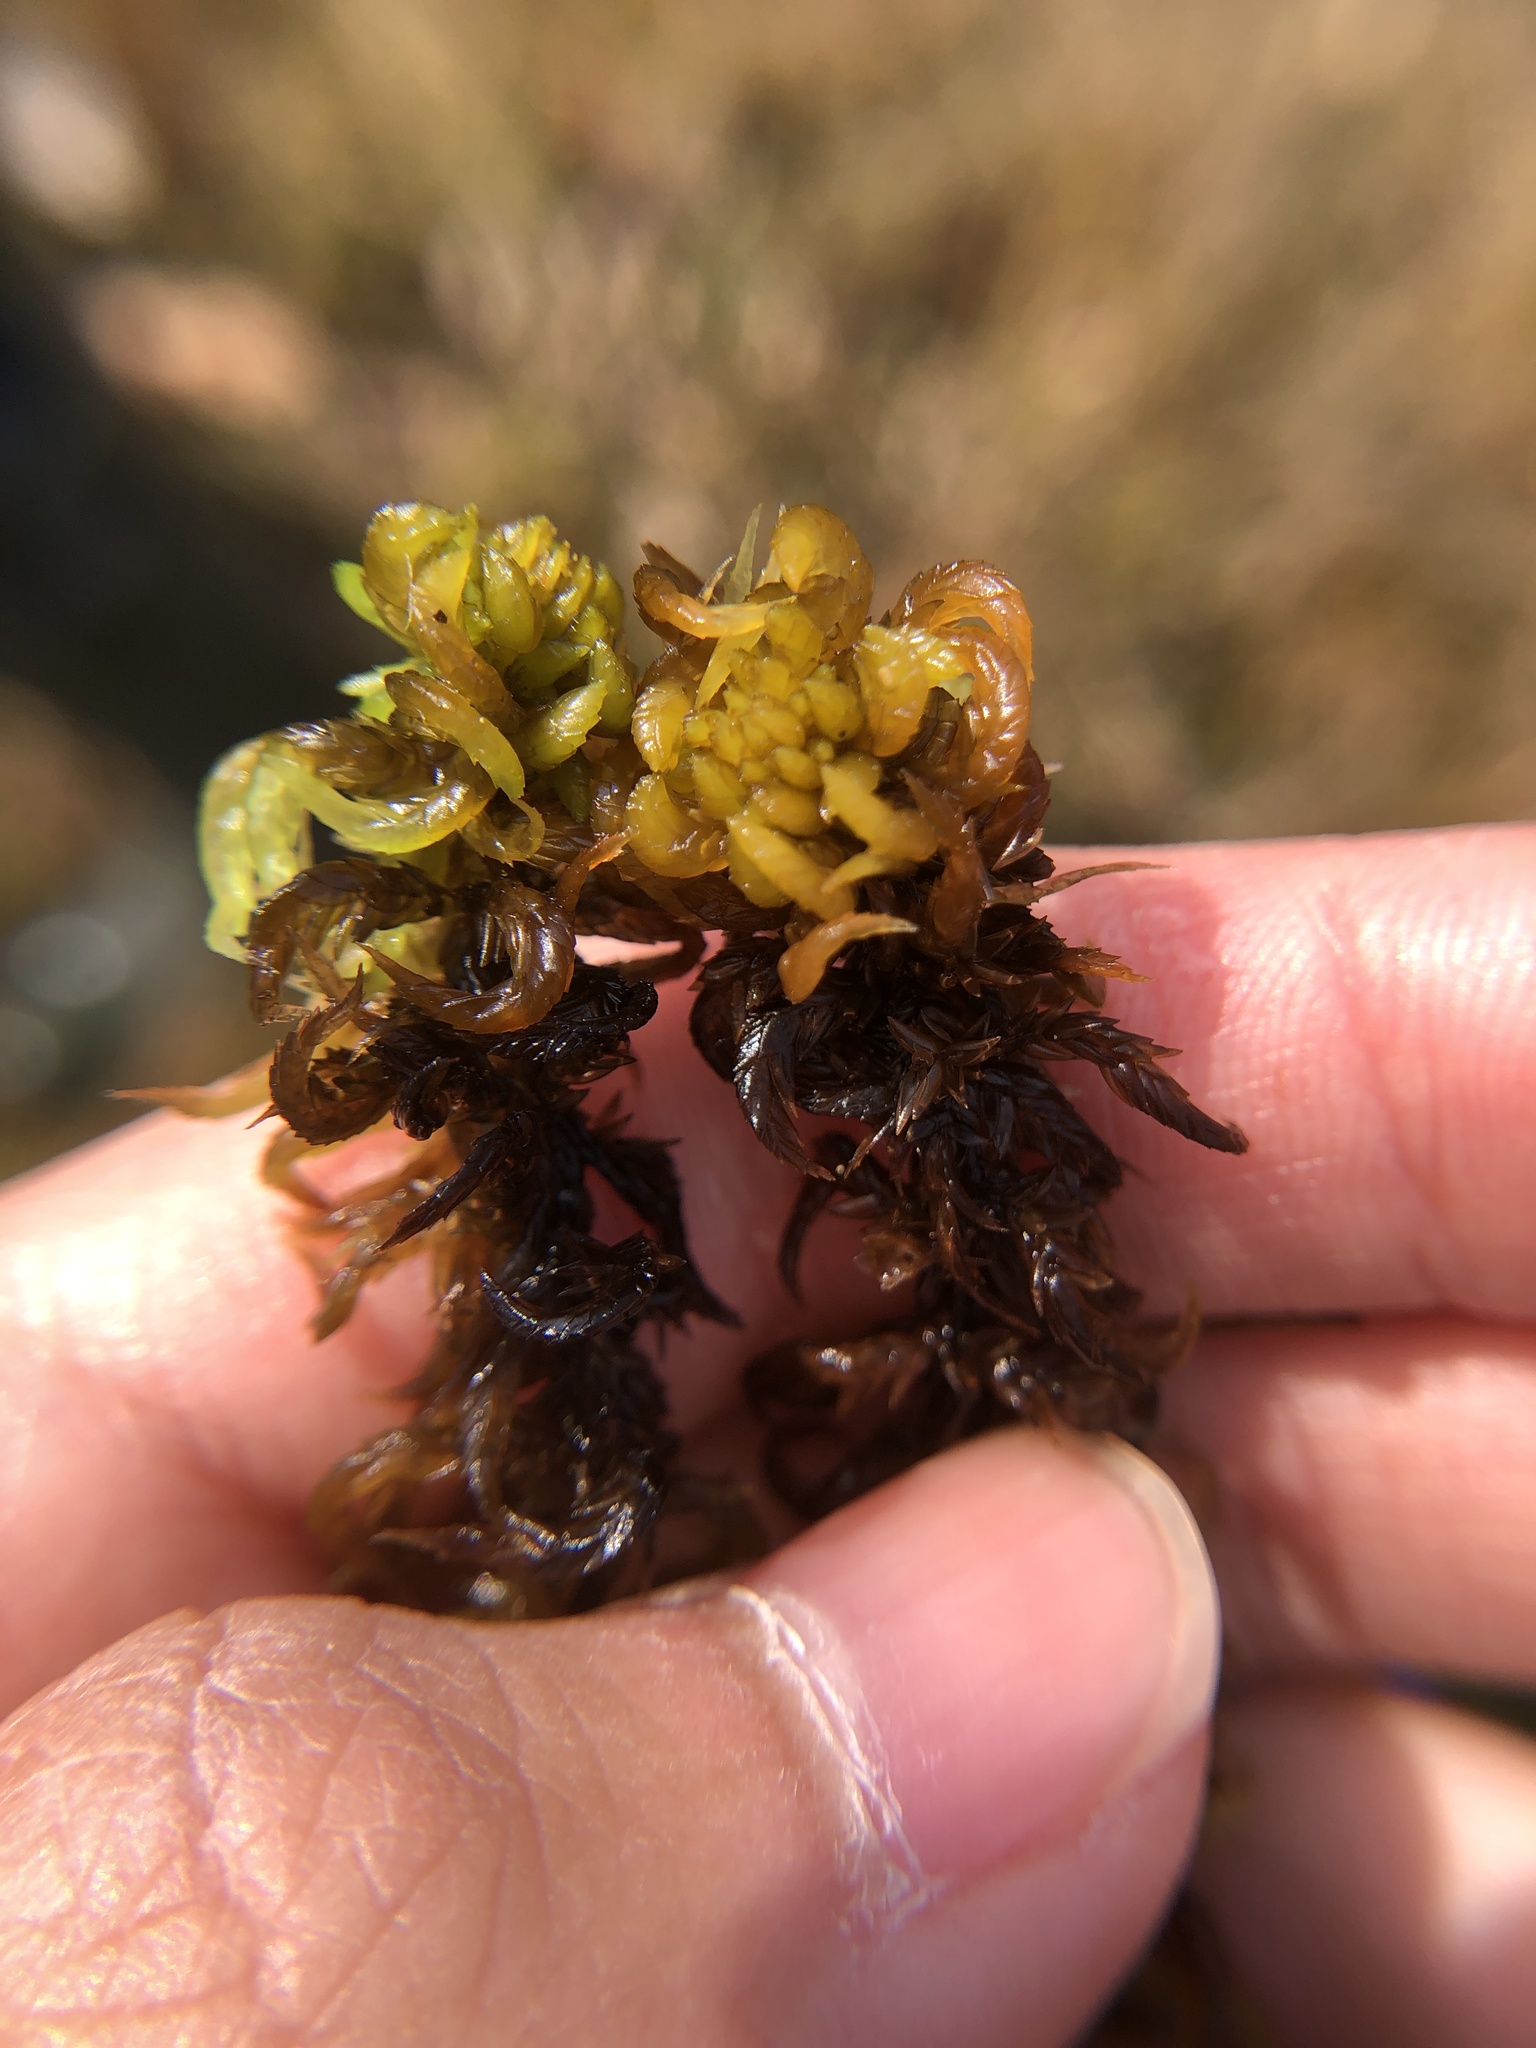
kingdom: Plantae
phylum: Bryophyta
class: Sphagnopsida
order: Sphagnales
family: Sphagnaceae
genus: Sphagnum
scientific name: Sphagnum denticulatum
